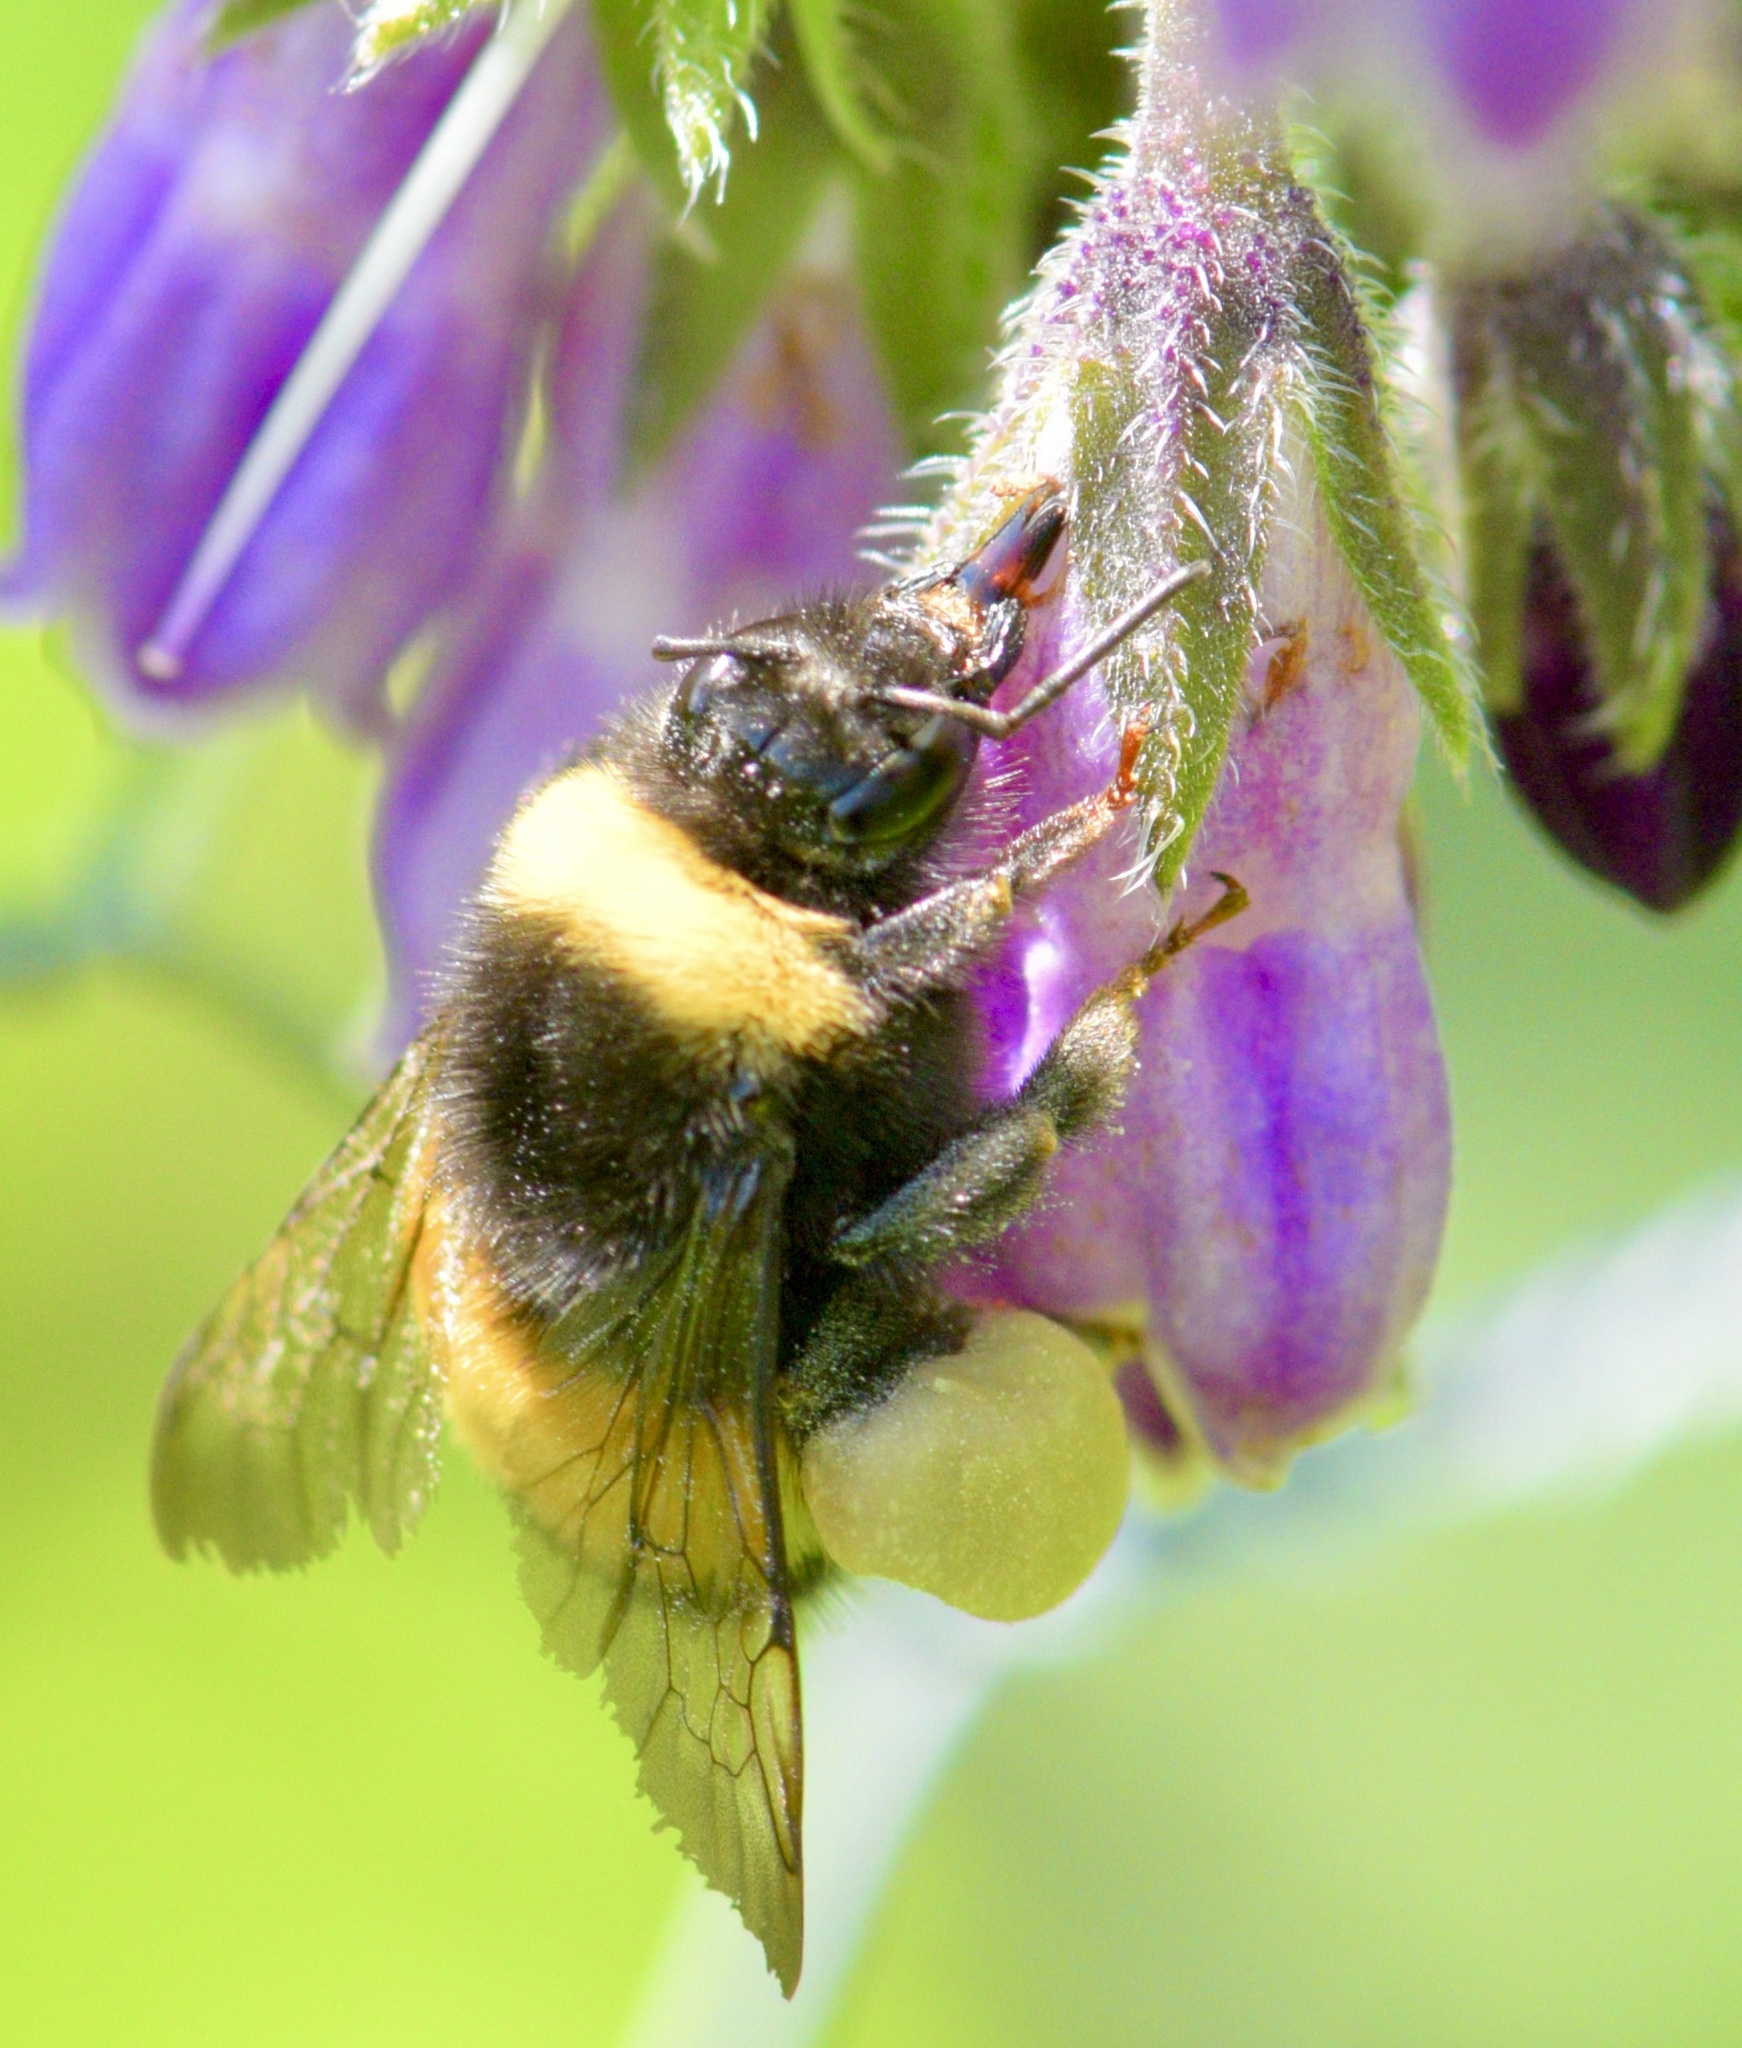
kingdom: Animalia
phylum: Arthropoda
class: Insecta
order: Hymenoptera
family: Apidae
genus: Bombus
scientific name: Bombus terricola
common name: Yellow-banded bumble bee
